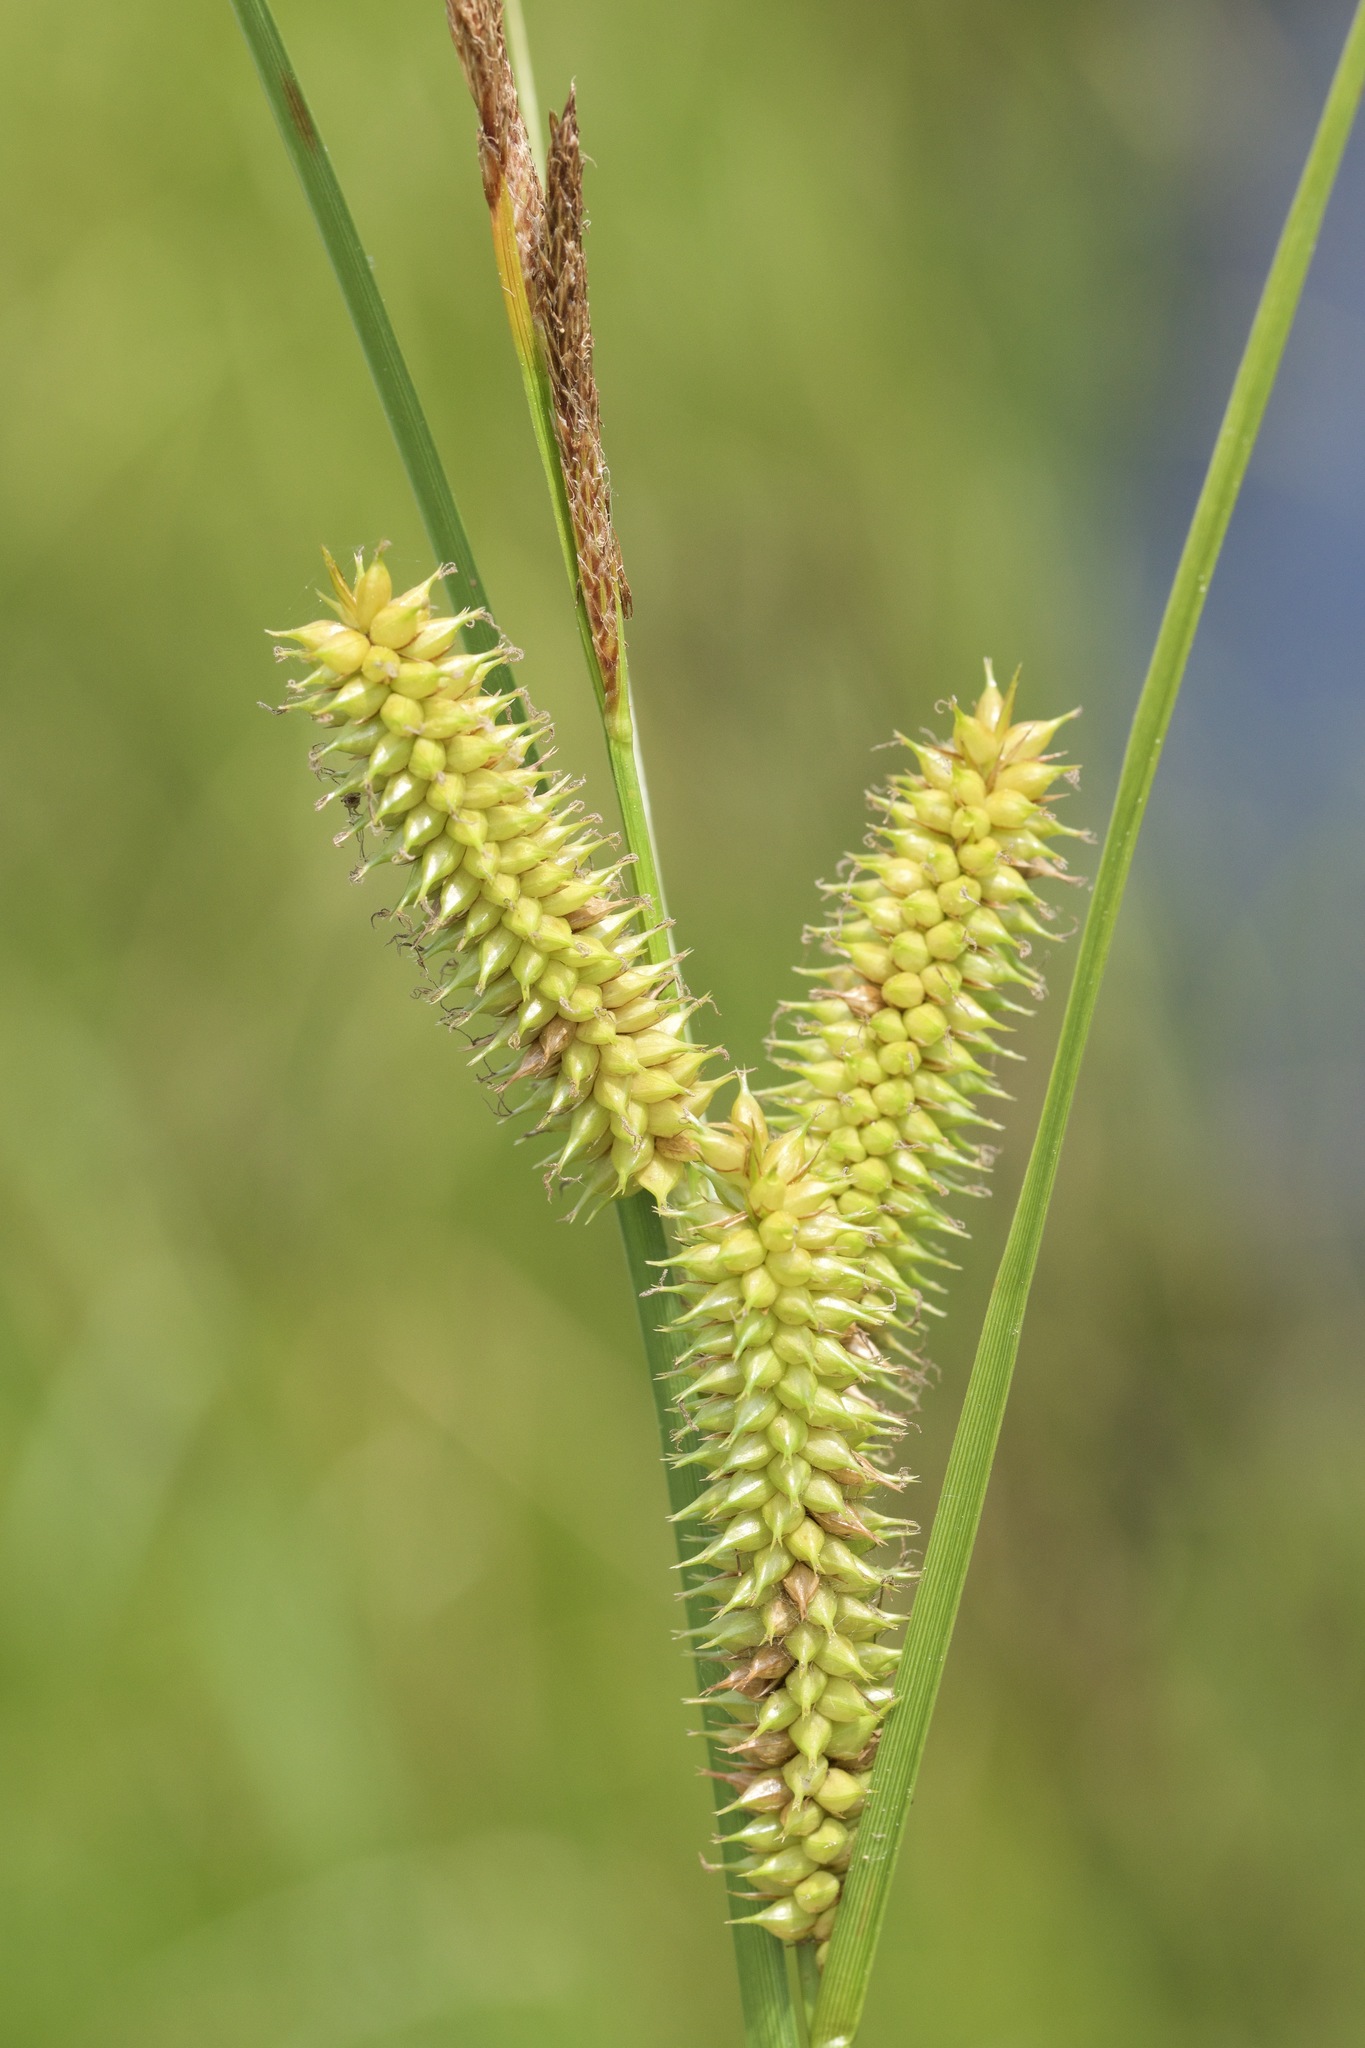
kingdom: Plantae
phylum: Tracheophyta
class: Liliopsida
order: Poales
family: Cyperaceae
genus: Carex
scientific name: Carex utriculata
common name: Beaked sedge
